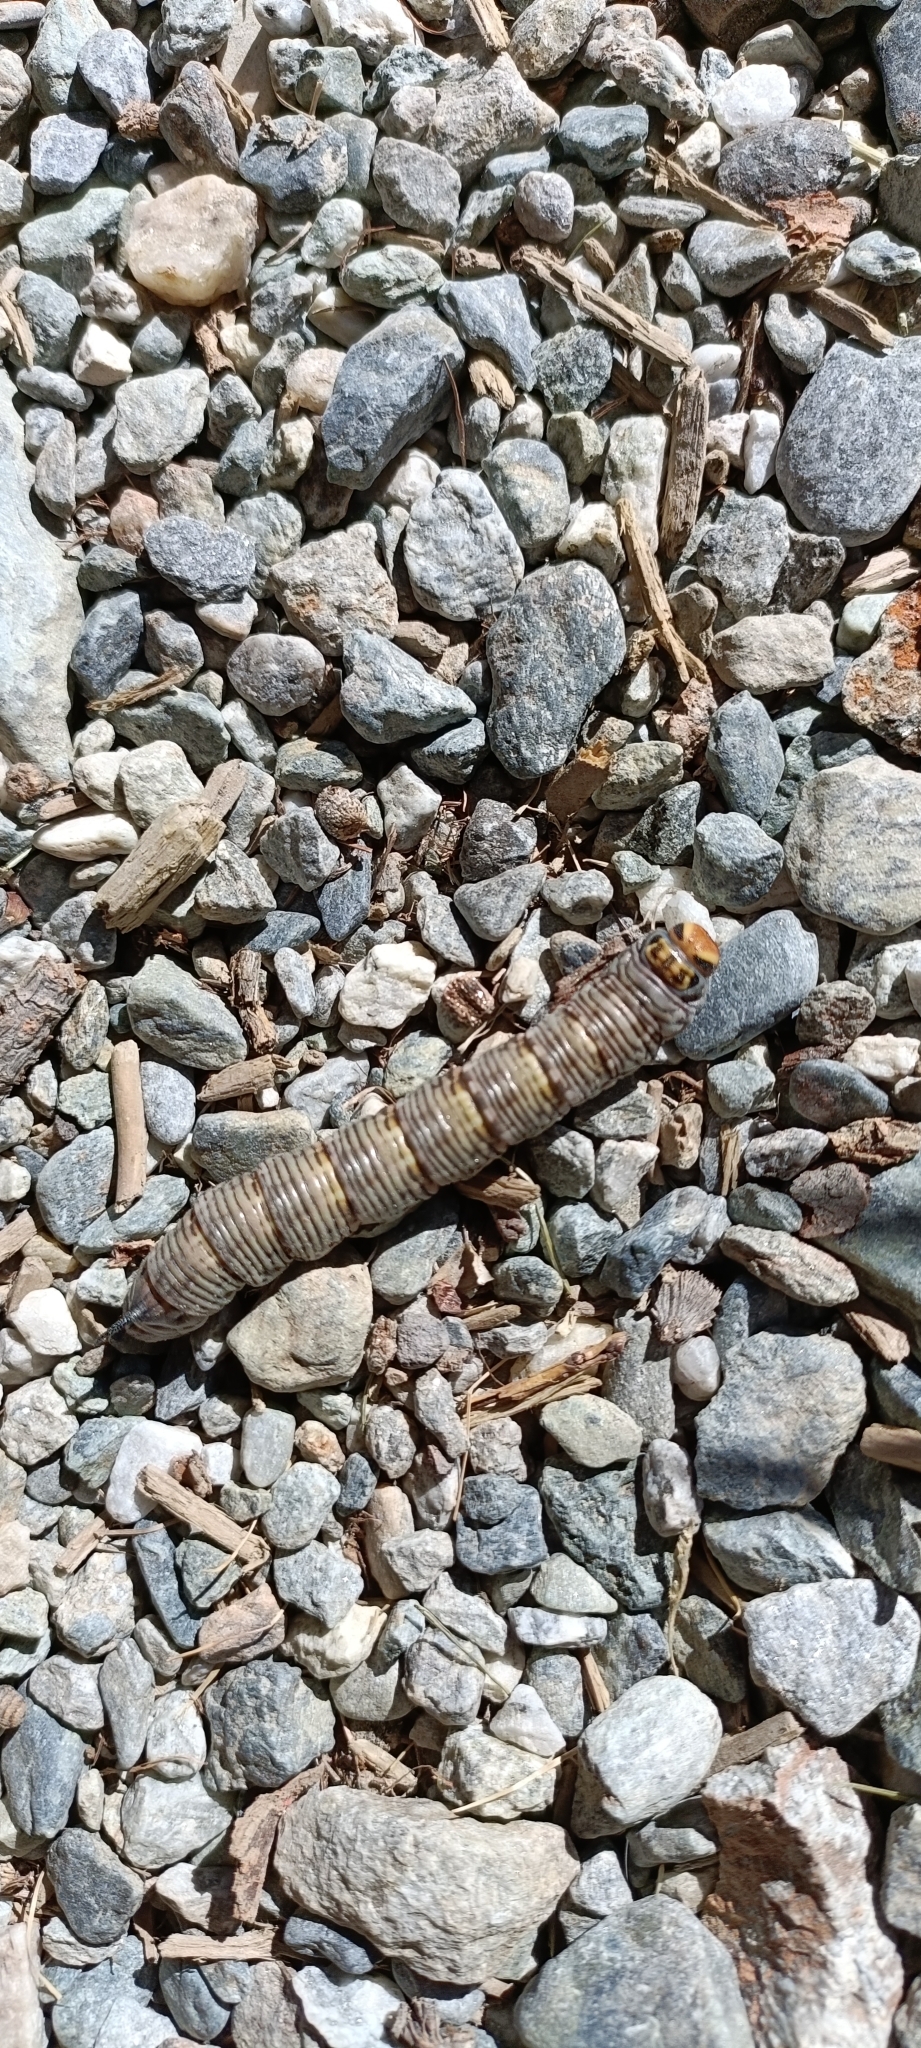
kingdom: Animalia
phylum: Arthropoda
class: Insecta
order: Lepidoptera
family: Sphingidae
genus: Sphinx
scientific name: Sphinx pinastri
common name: Pine hawk-moth
